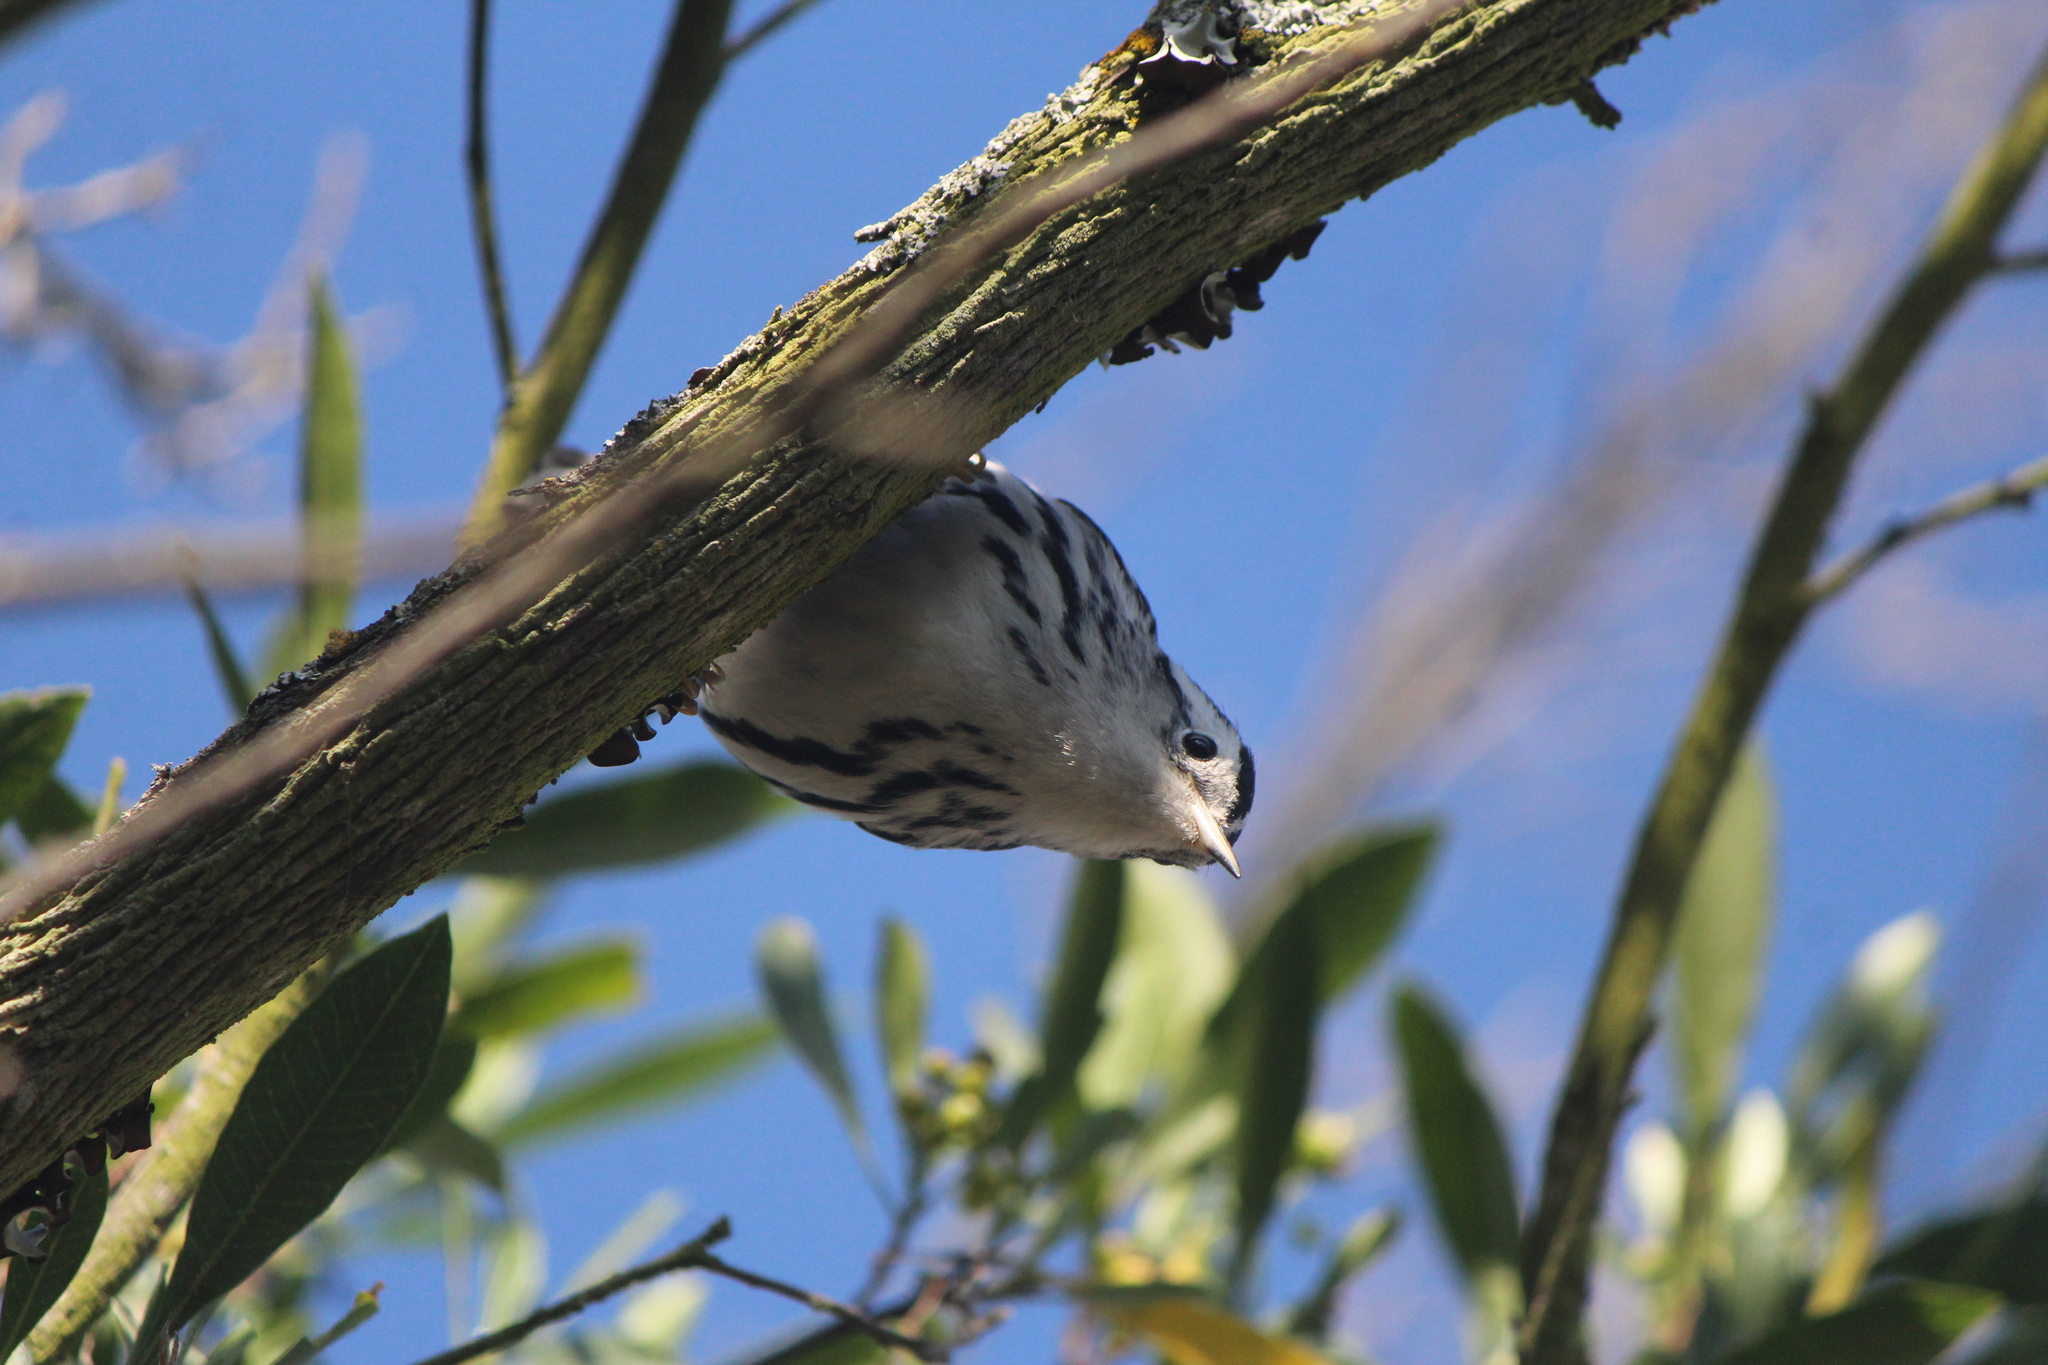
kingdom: Animalia
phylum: Chordata
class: Aves
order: Passeriformes
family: Parulidae
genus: Mniotilta
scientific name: Mniotilta varia
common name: Black-and-white warbler
